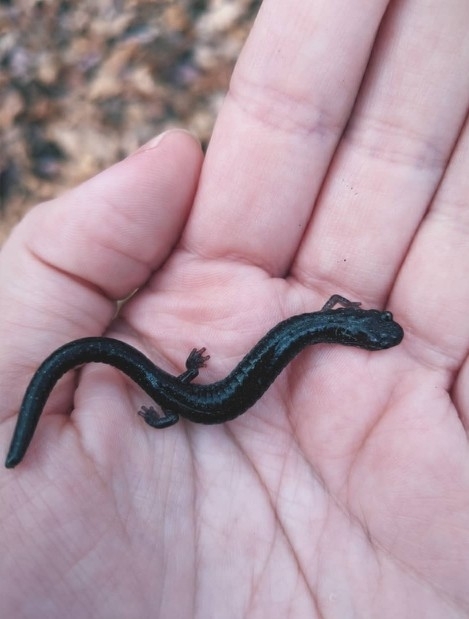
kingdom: Animalia
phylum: Chordata
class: Amphibia
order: Caudata
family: Plethodontidae
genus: Plethodon
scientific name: Plethodon cinereus
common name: Redback salamander
